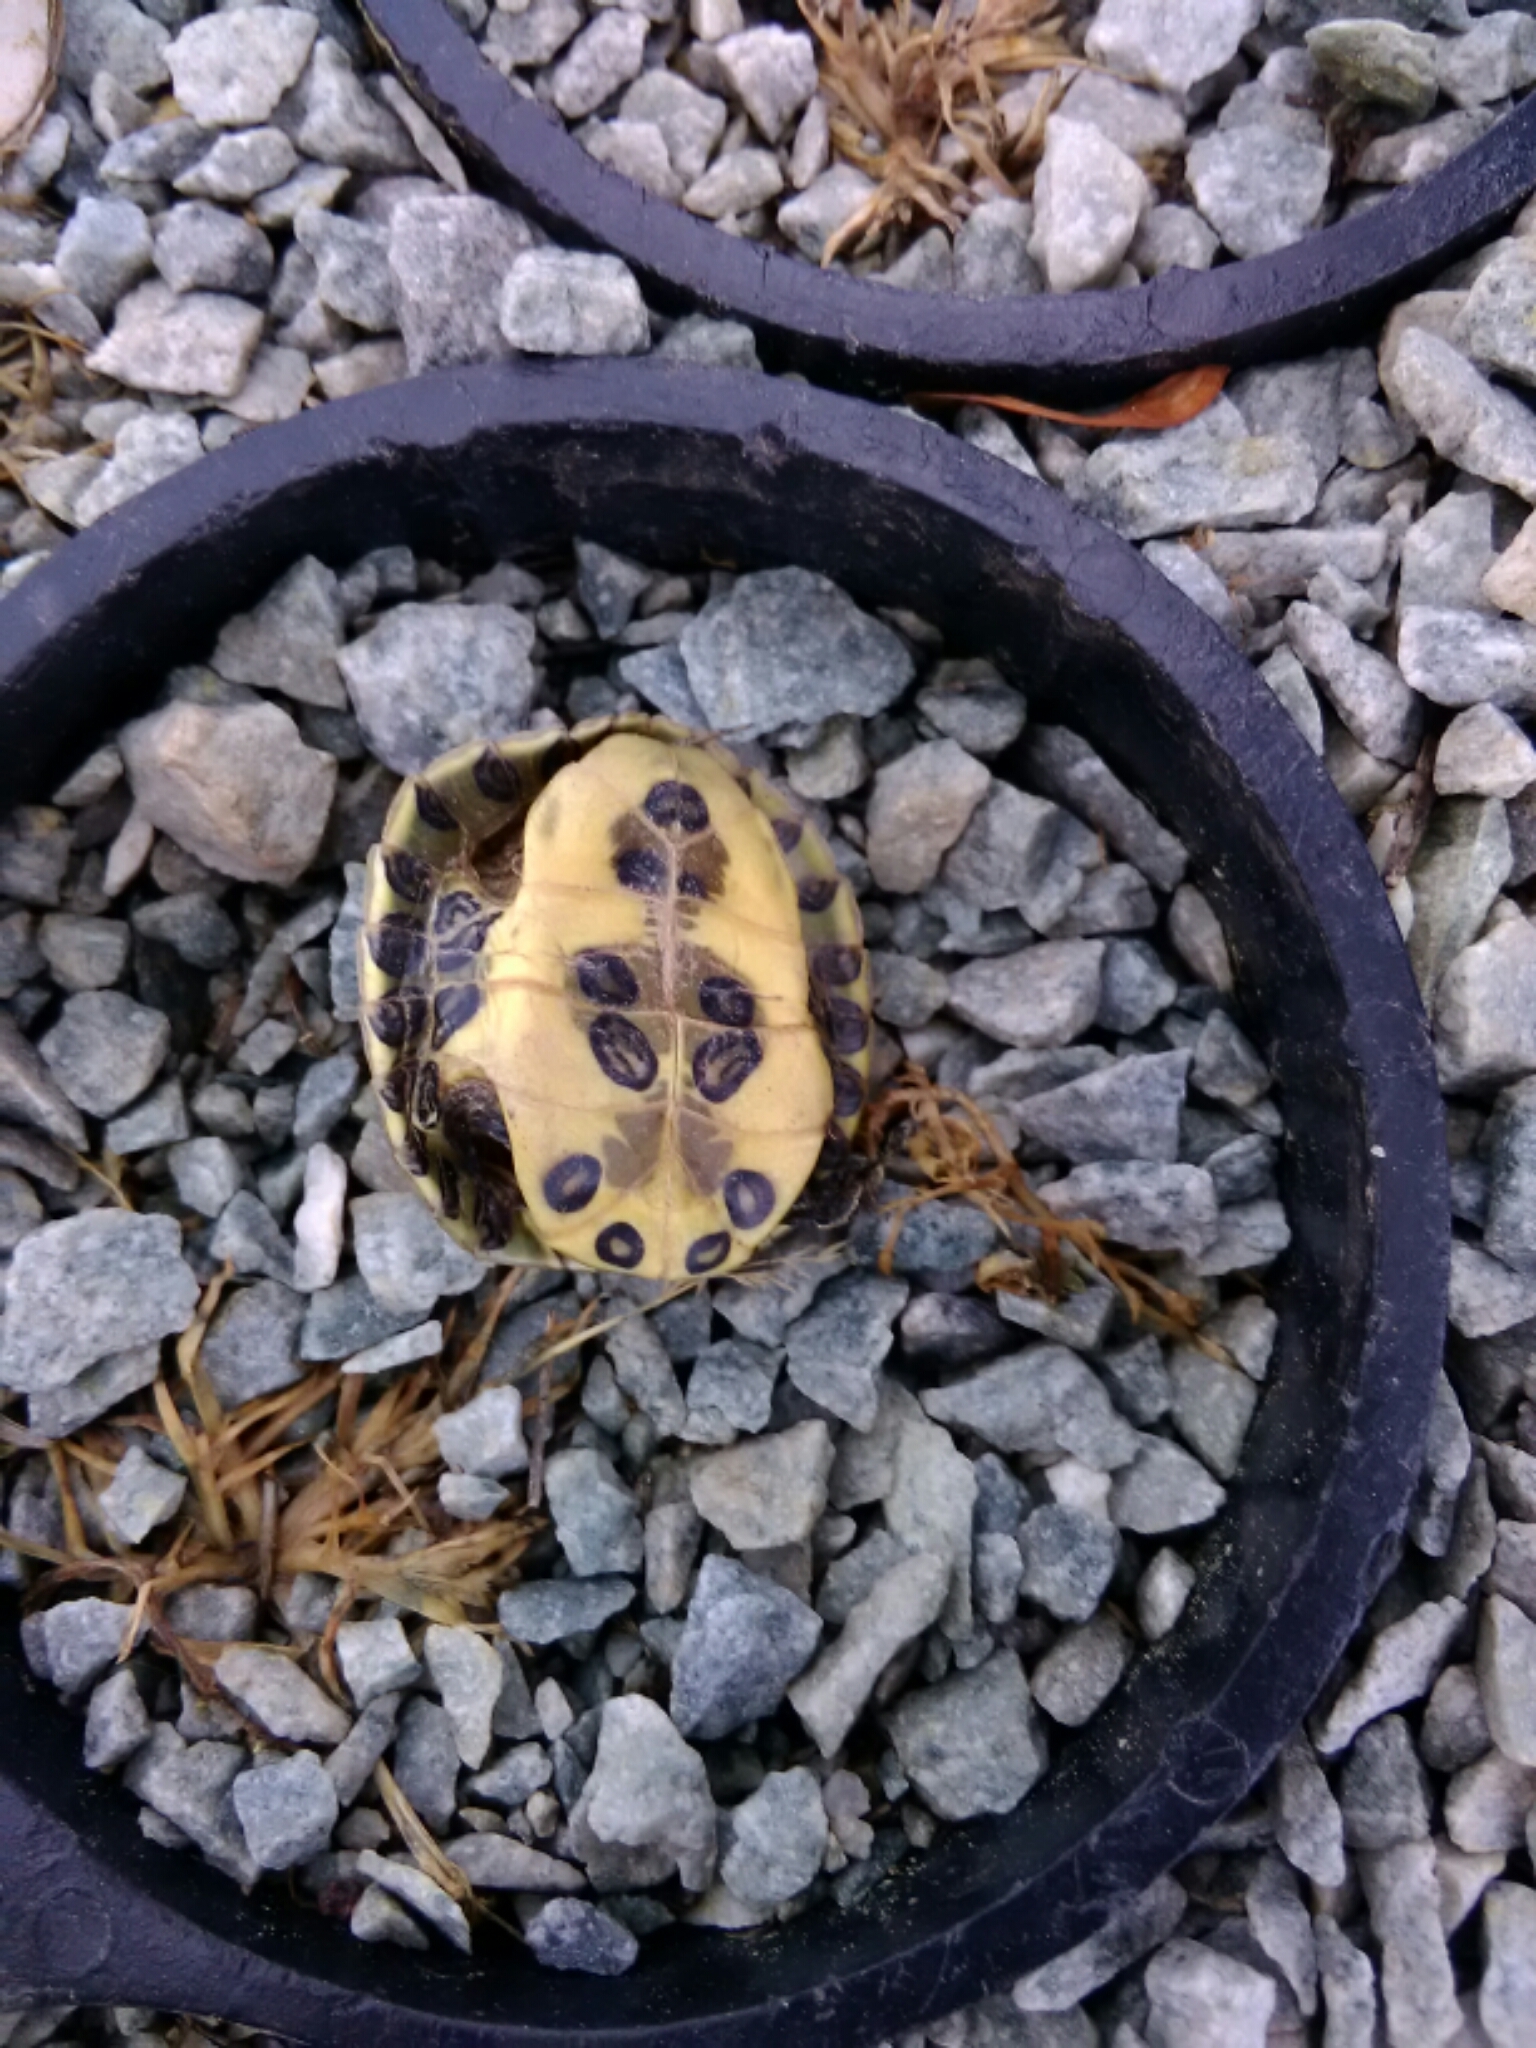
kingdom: Animalia
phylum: Chordata
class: Testudines
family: Emydidae
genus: Trachemys
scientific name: Trachemys scripta
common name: Slider
